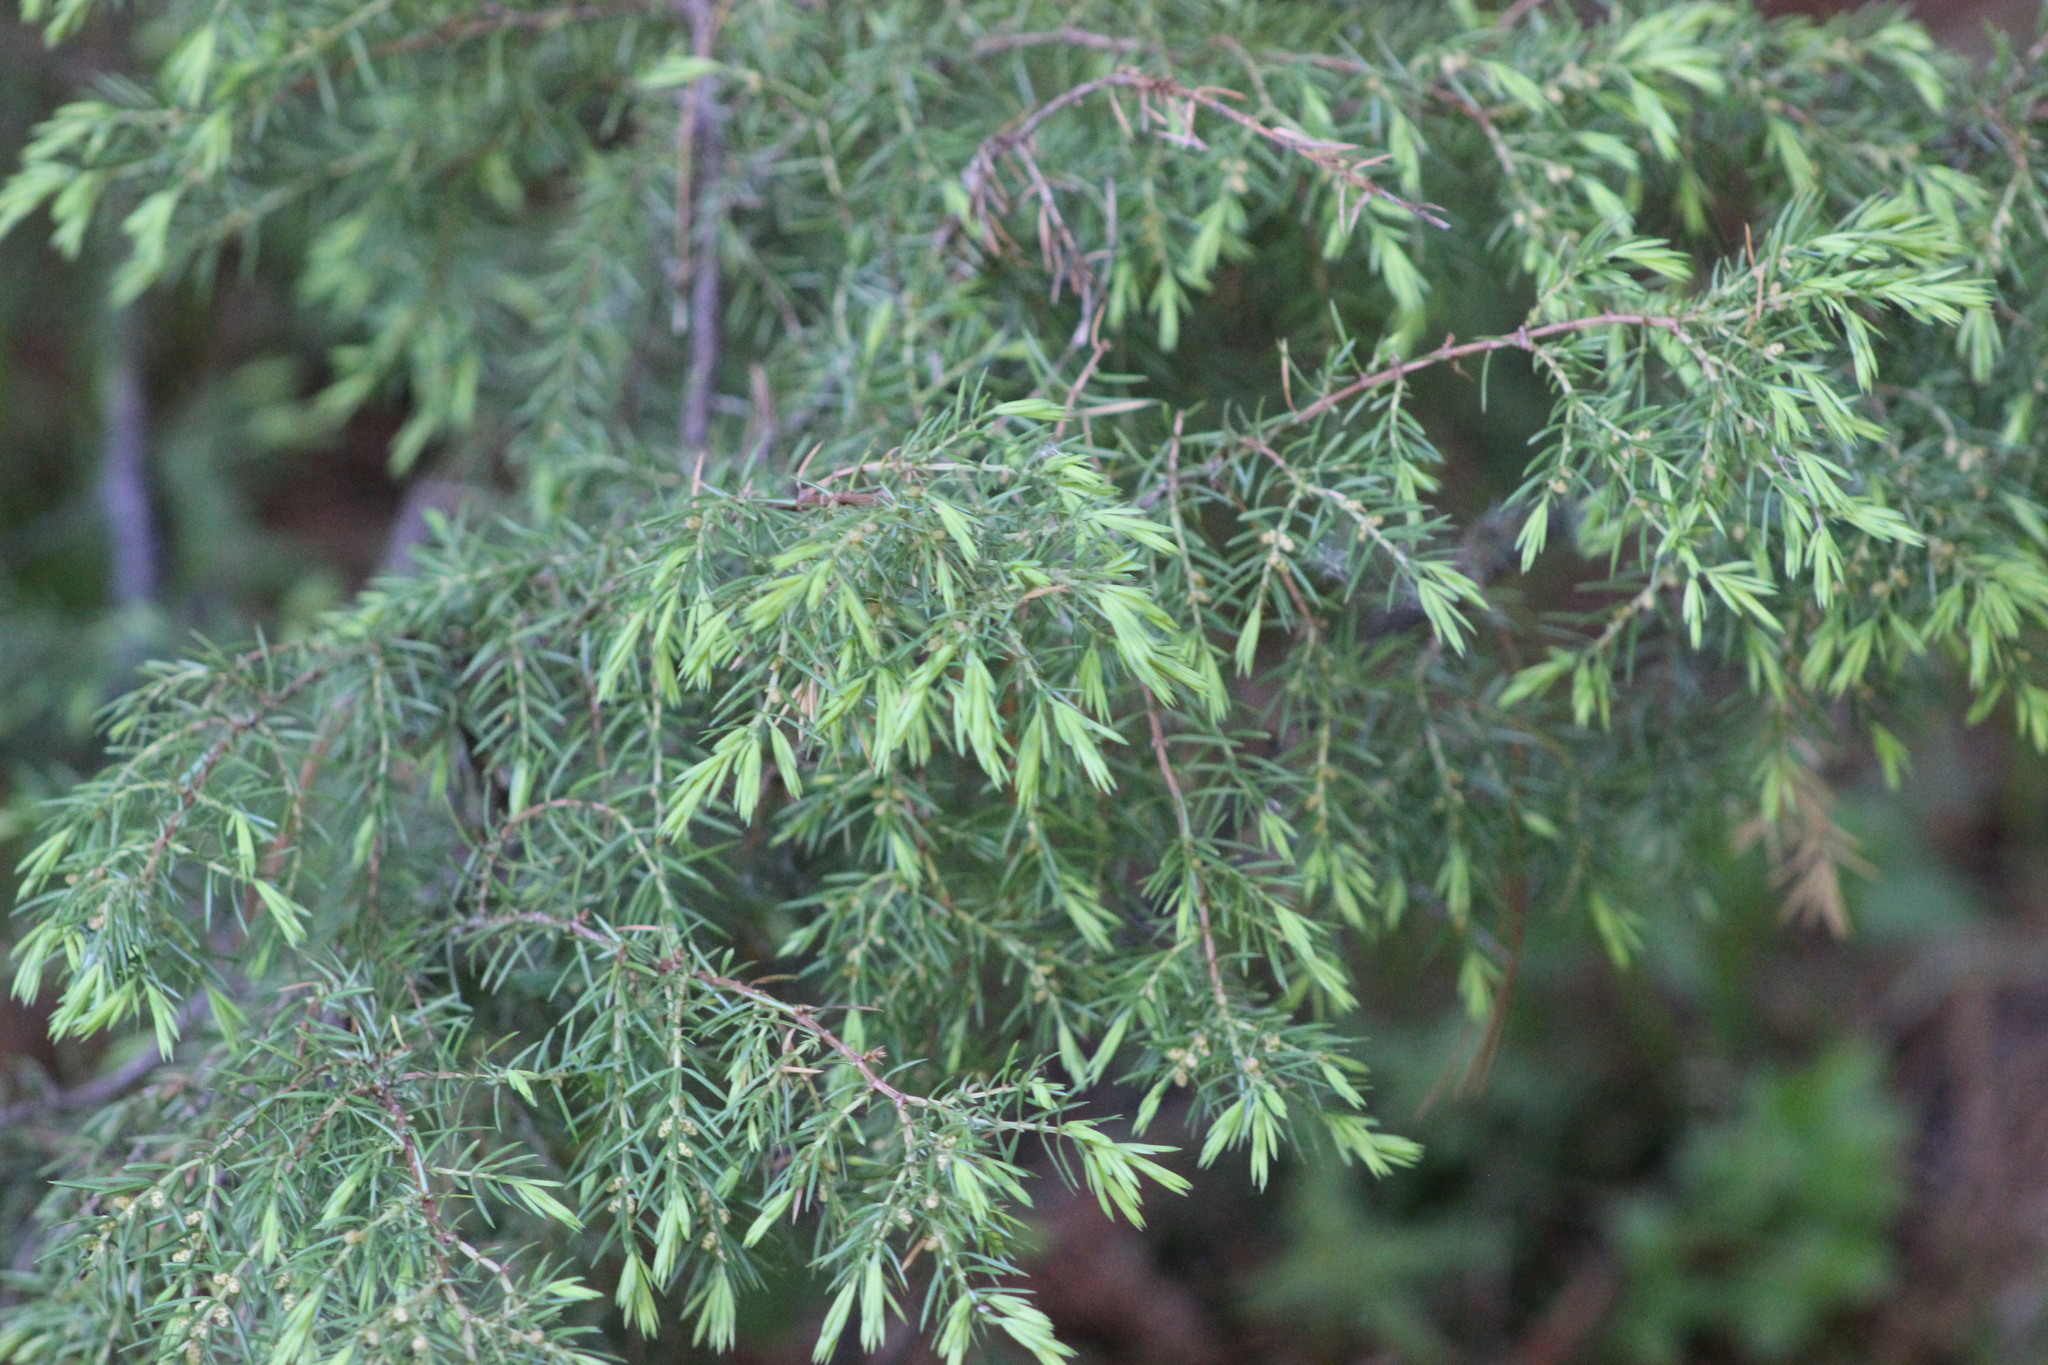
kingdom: Plantae
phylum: Tracheophyta
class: Pinopsida
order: Pinales
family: Cupressaceae
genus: Juniperus
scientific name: Juniperus communis
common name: Common juniper
